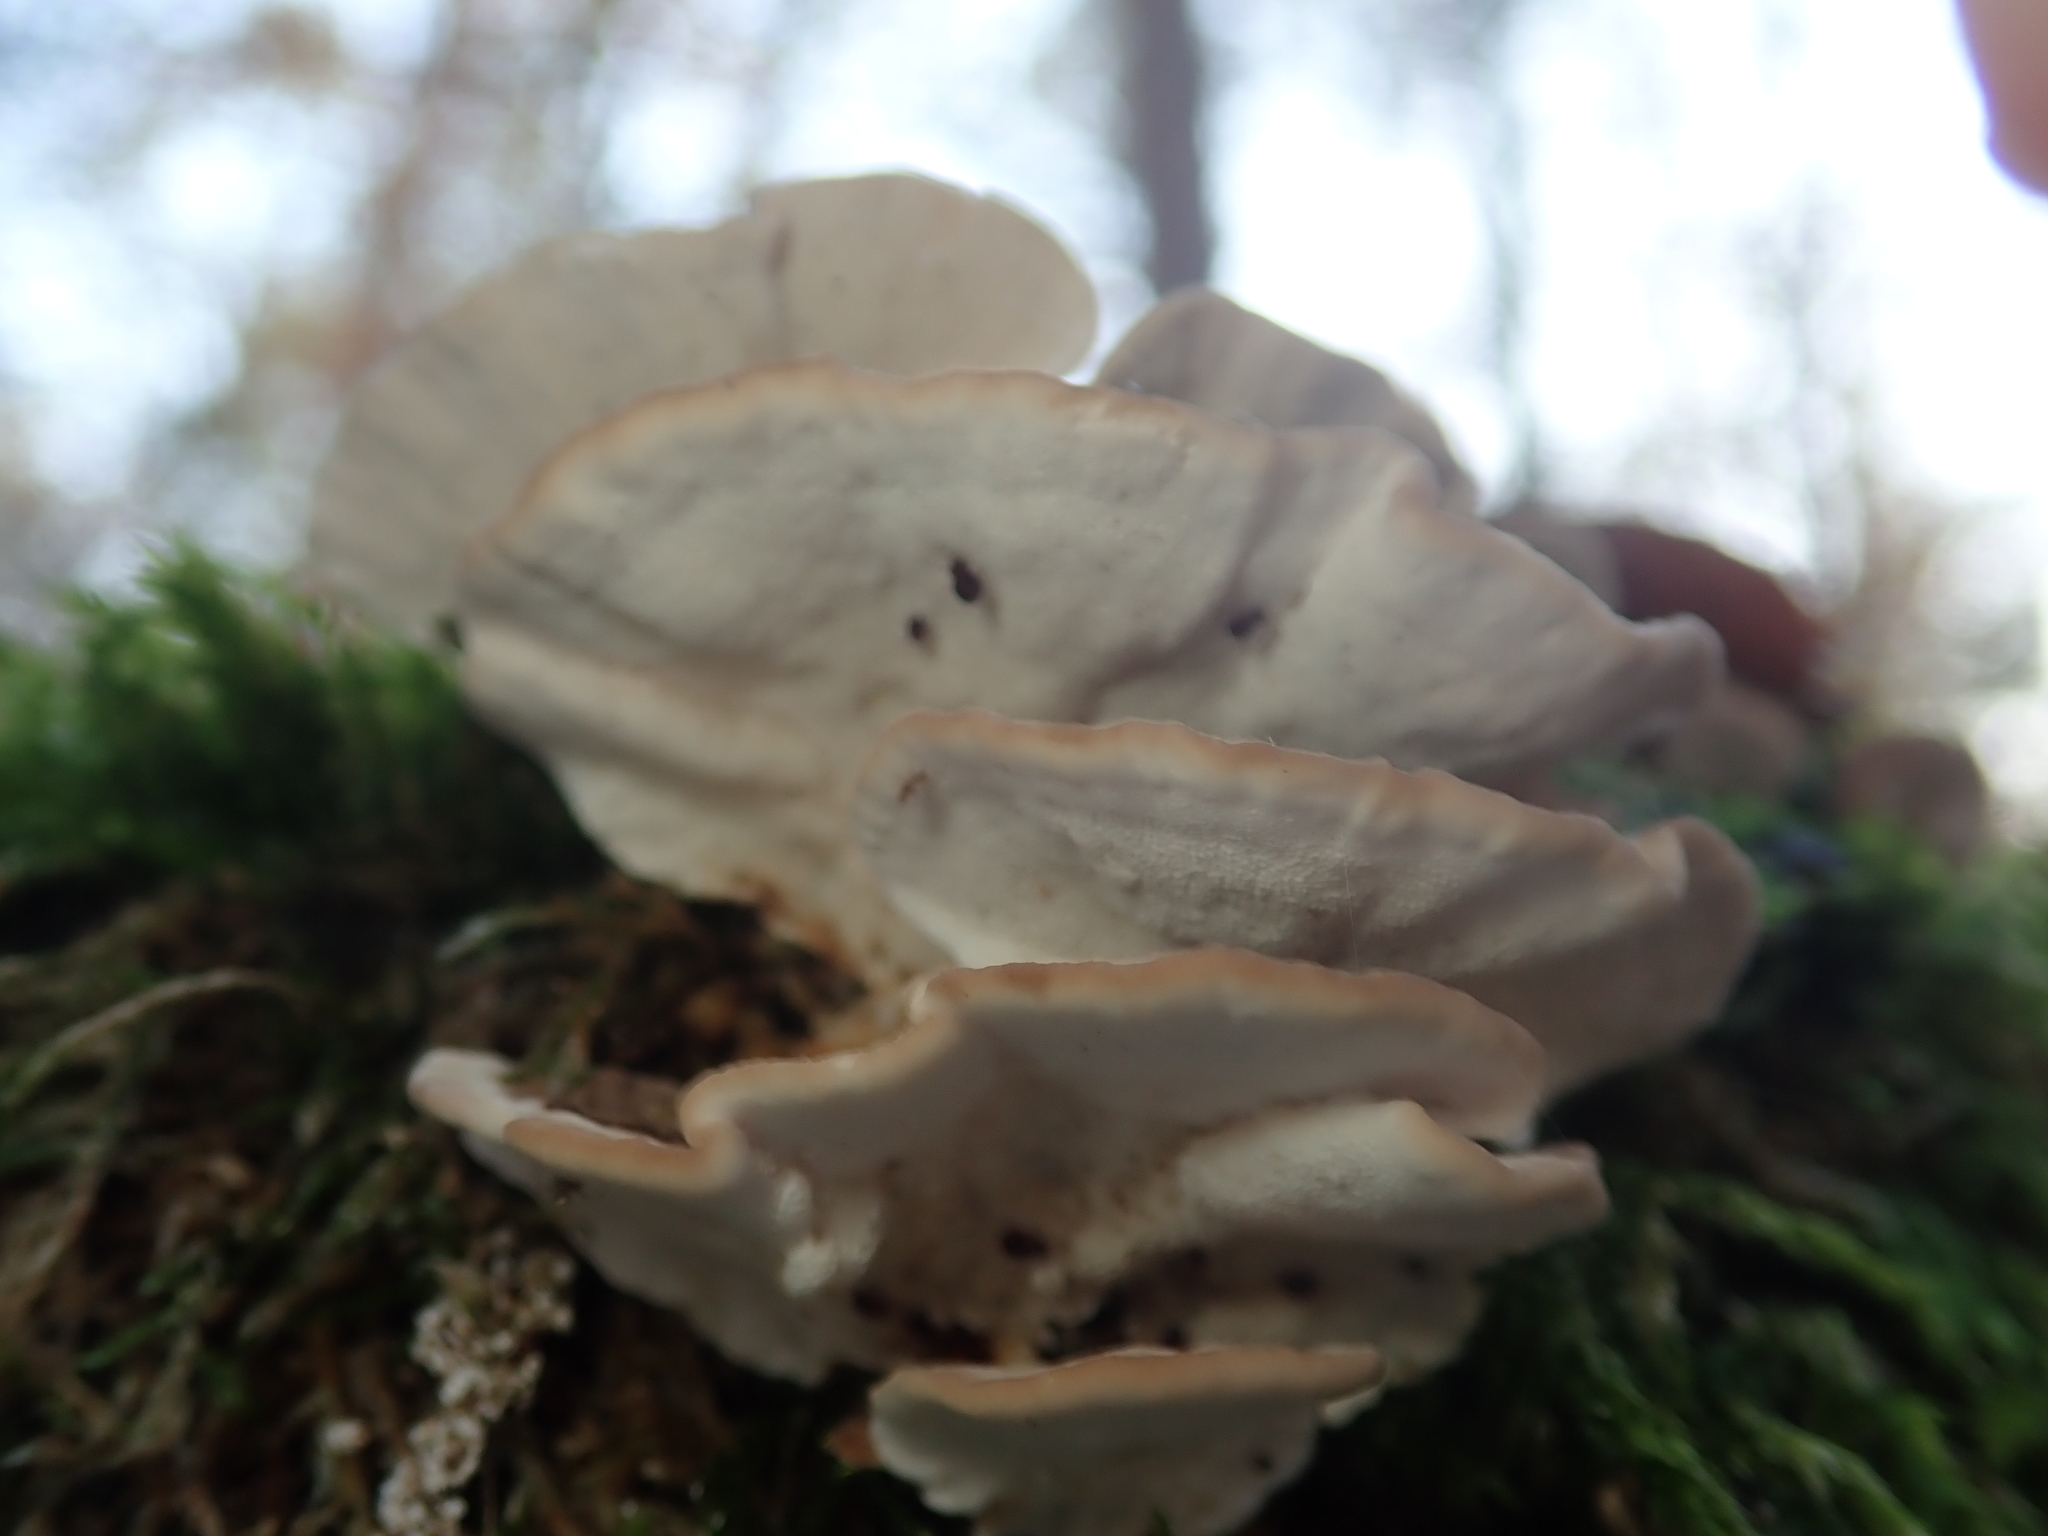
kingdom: Fungi
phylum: Basidiomycota
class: Agaricomycetes
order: Polyporales
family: Polyporaceae
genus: Trametes
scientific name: Trametes versicolor
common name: Turkeytail
